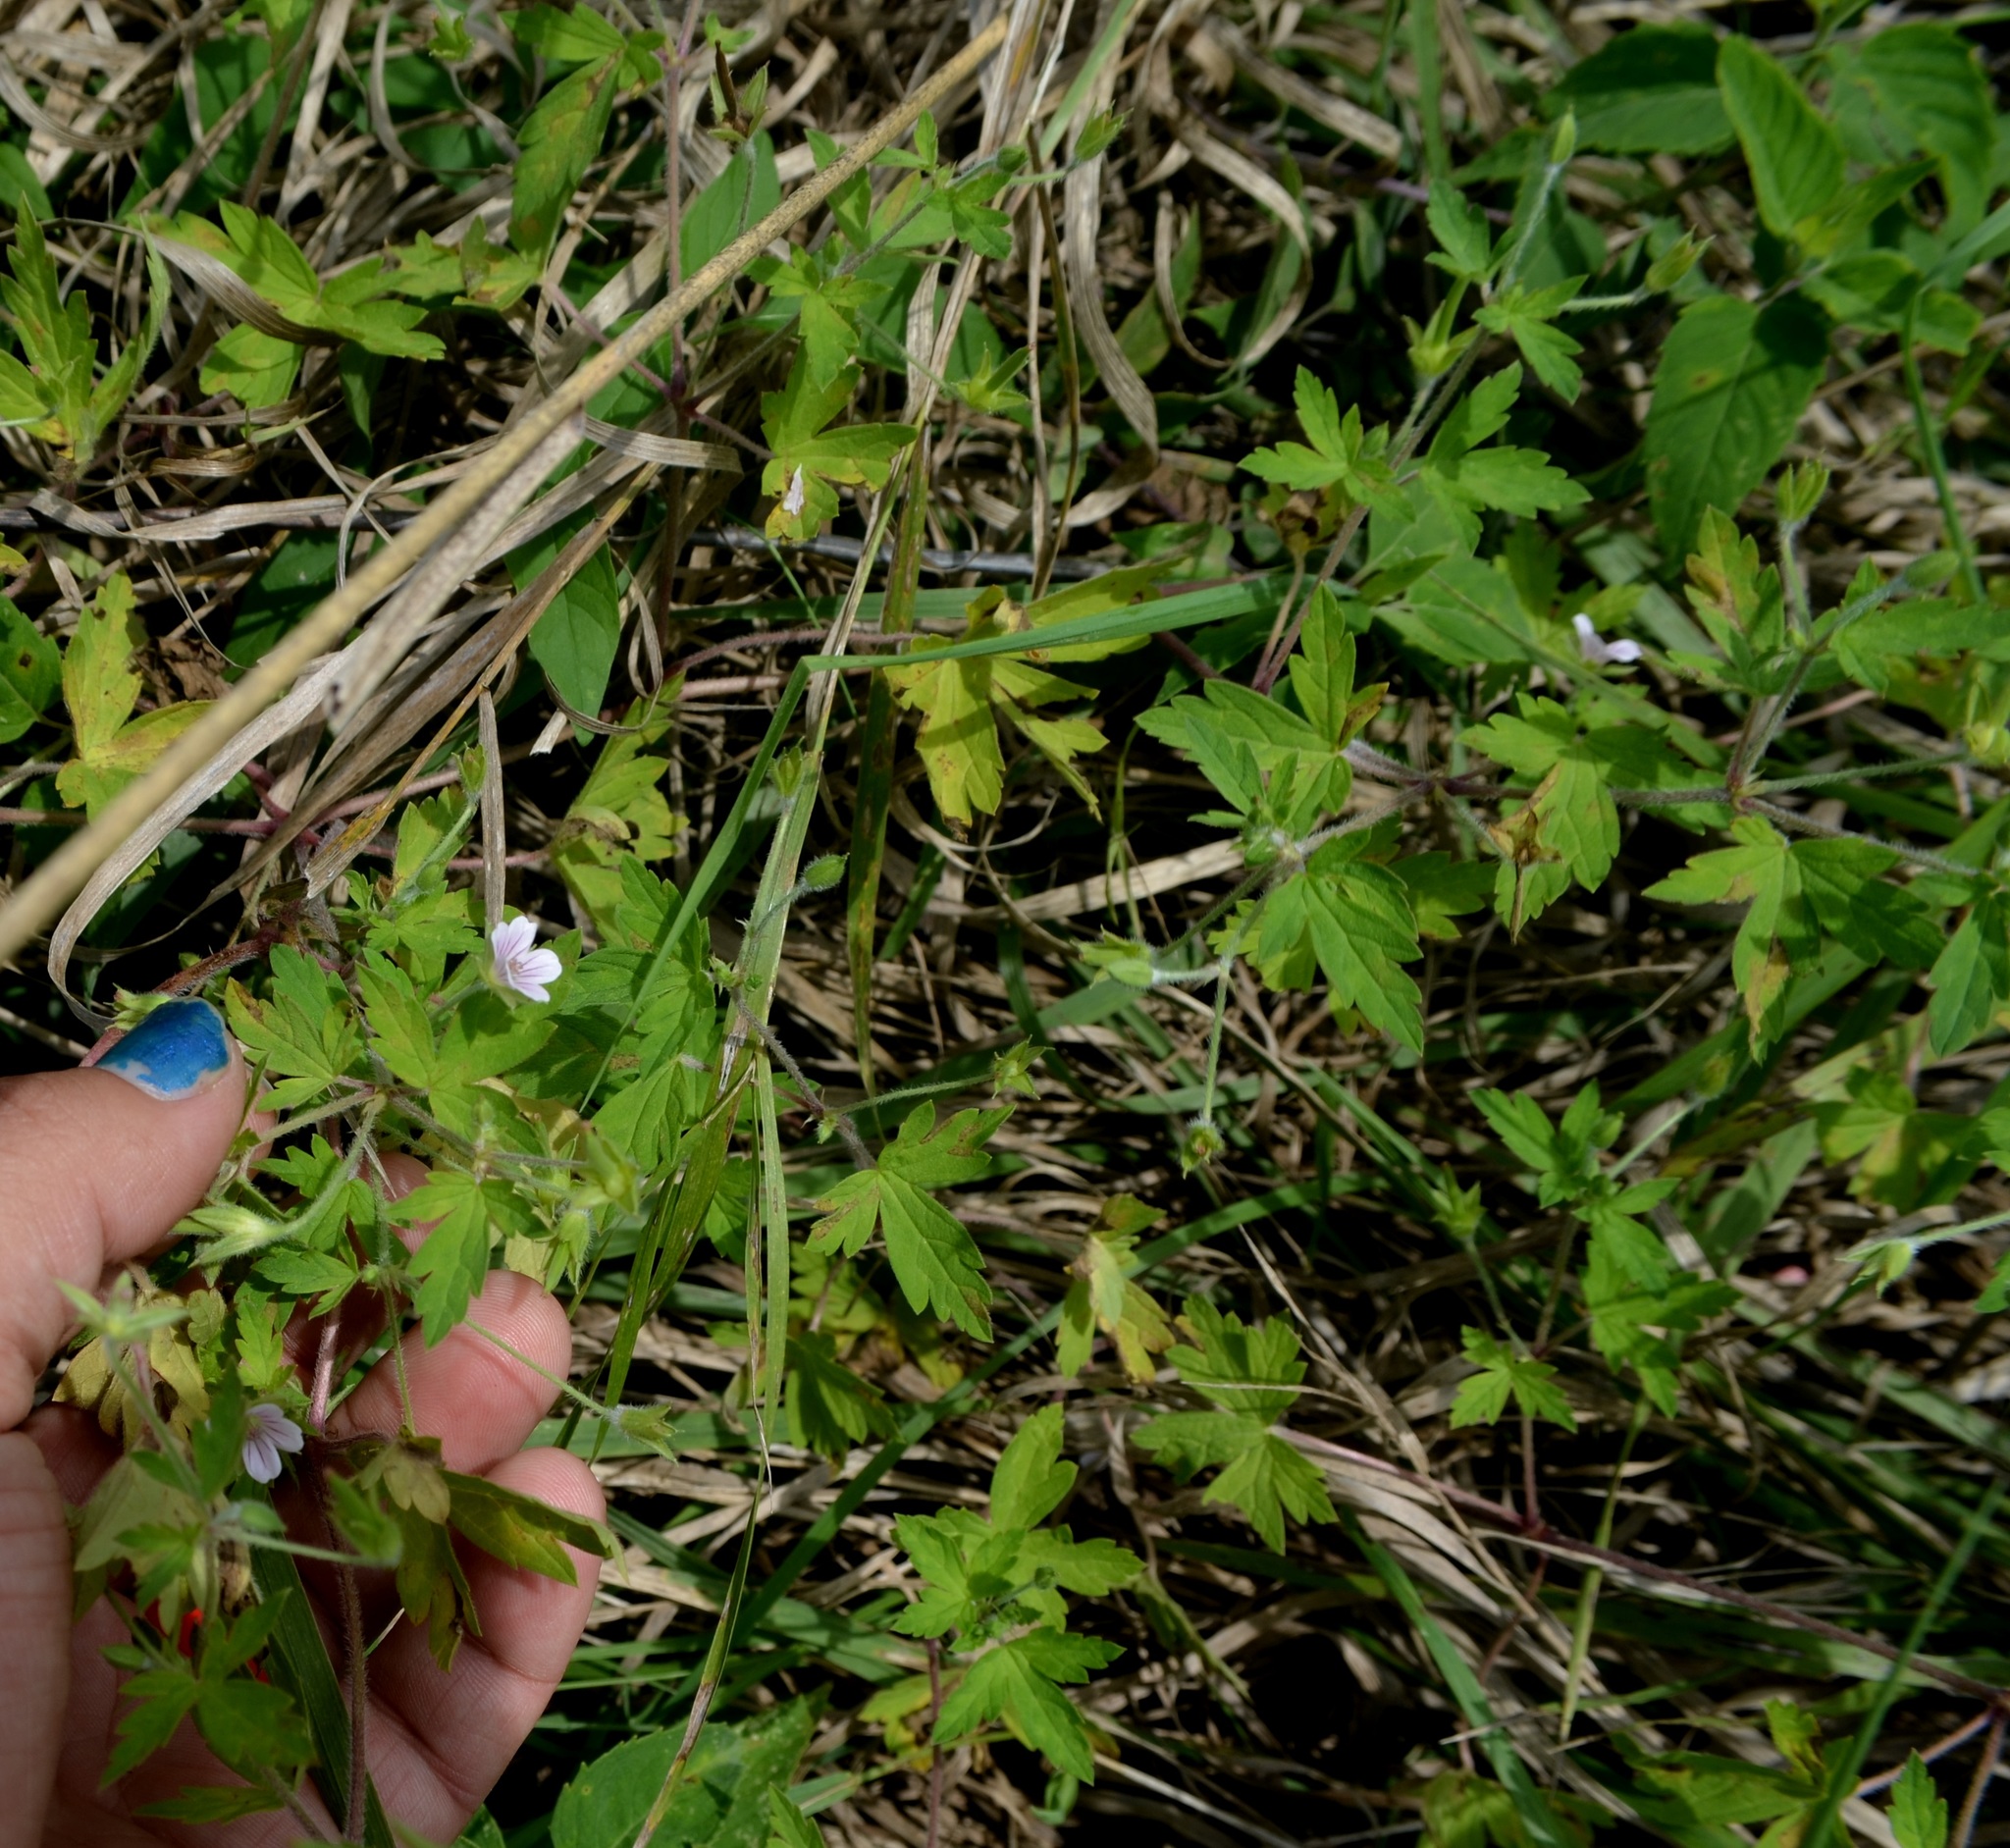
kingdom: Plantae
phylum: Tracheophyta
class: Magnoliopsida
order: Geraniales
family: Geraniaceae
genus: Geranium
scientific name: Geranium sibiricum
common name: Siberian crane's-bill
